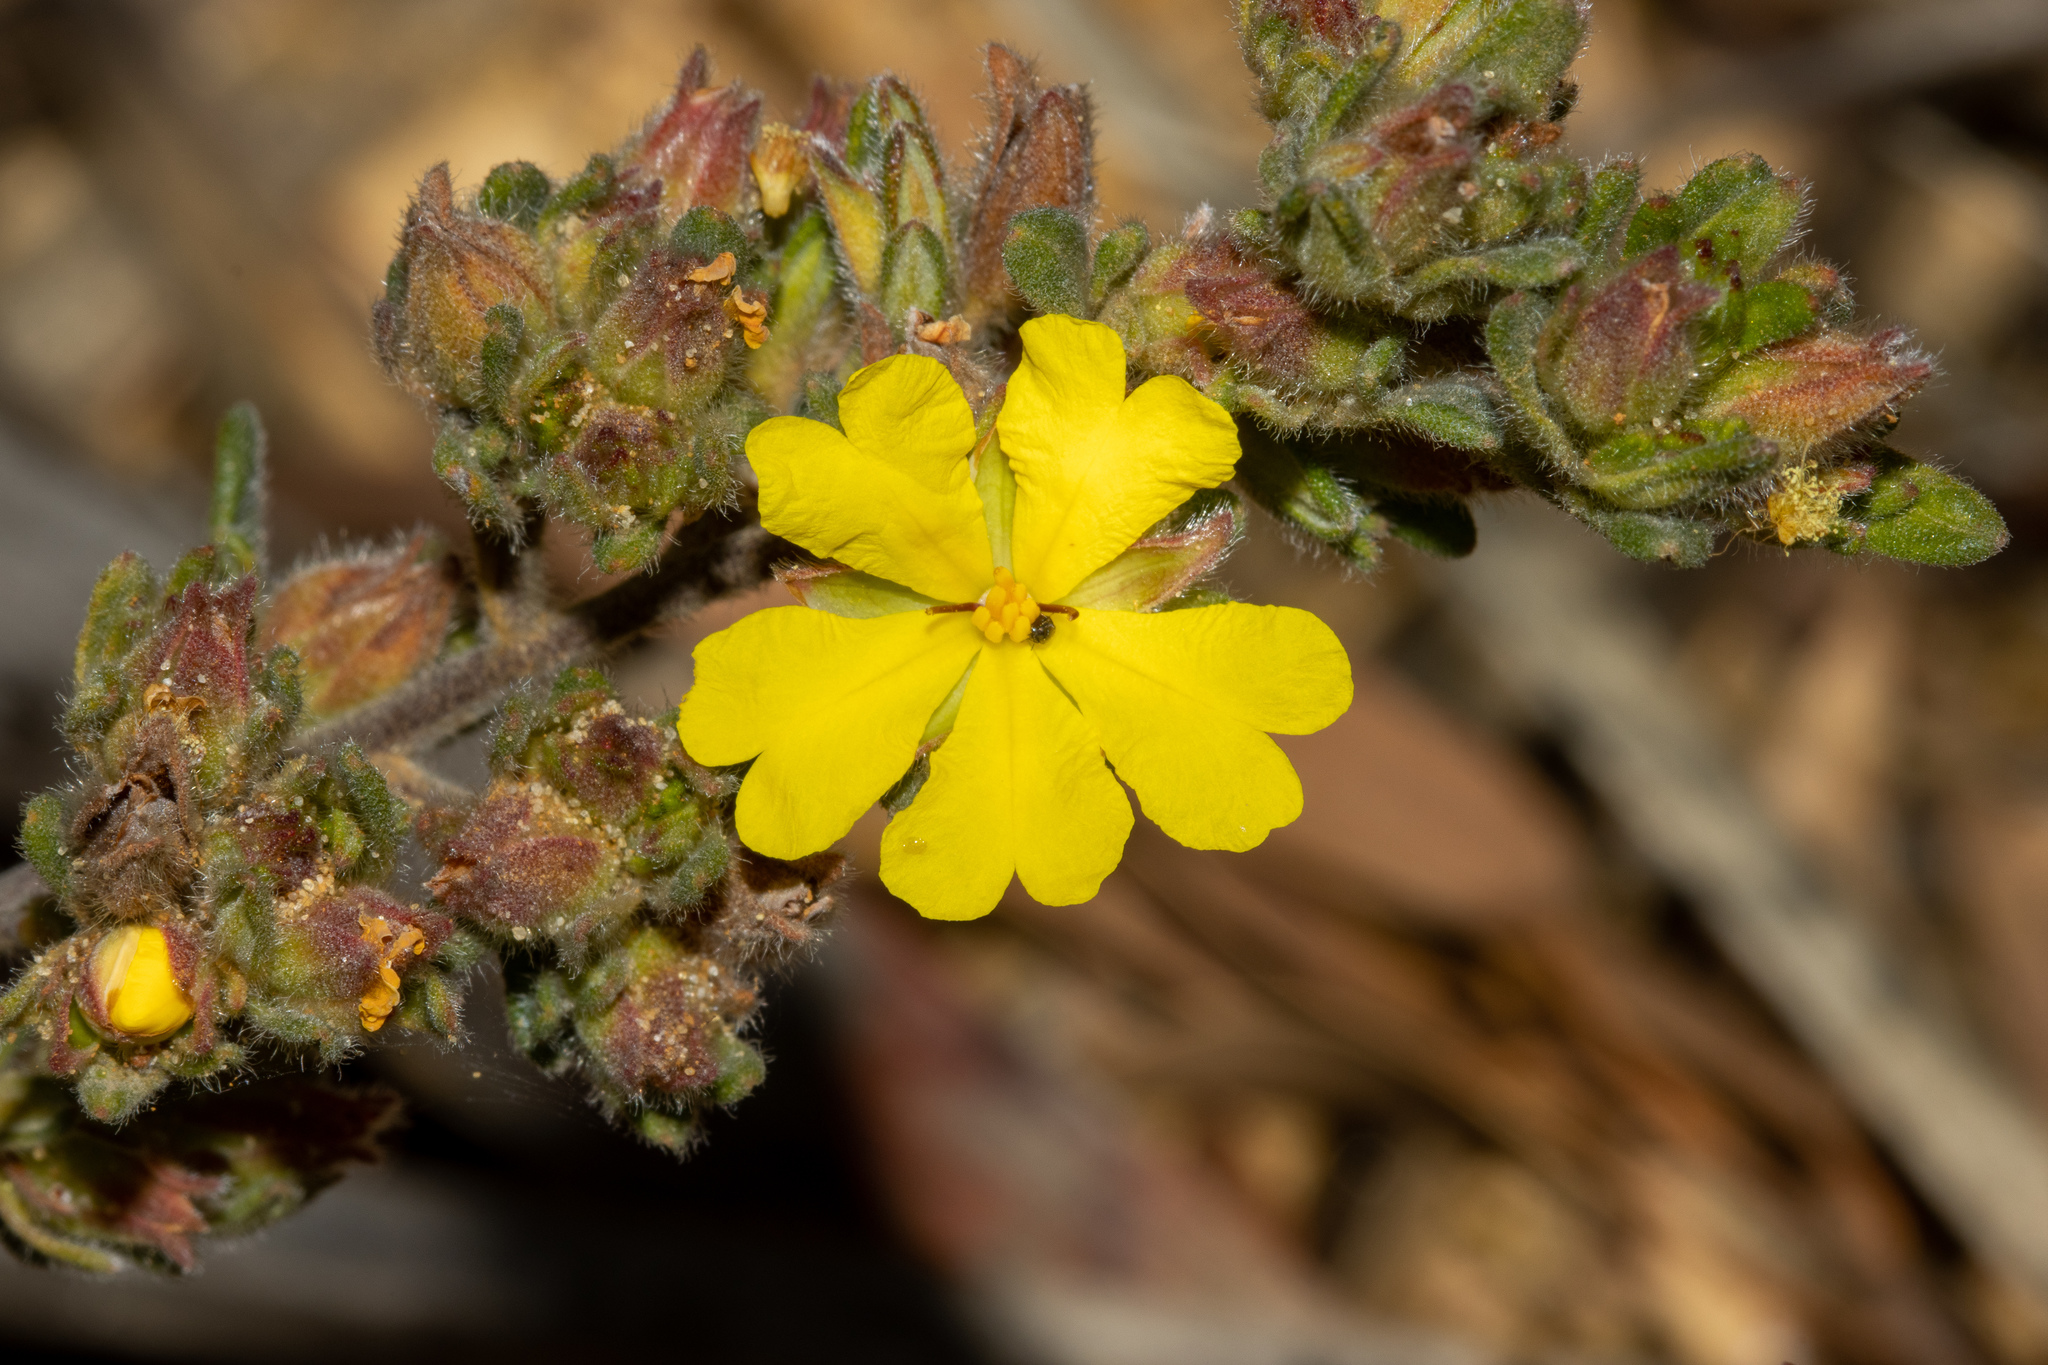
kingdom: Plantae
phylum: Tracheophyta
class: Magnoliopsida
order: Dilleniales
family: Dilleniaceae
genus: Hibbertia
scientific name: Hibbertia sericea
